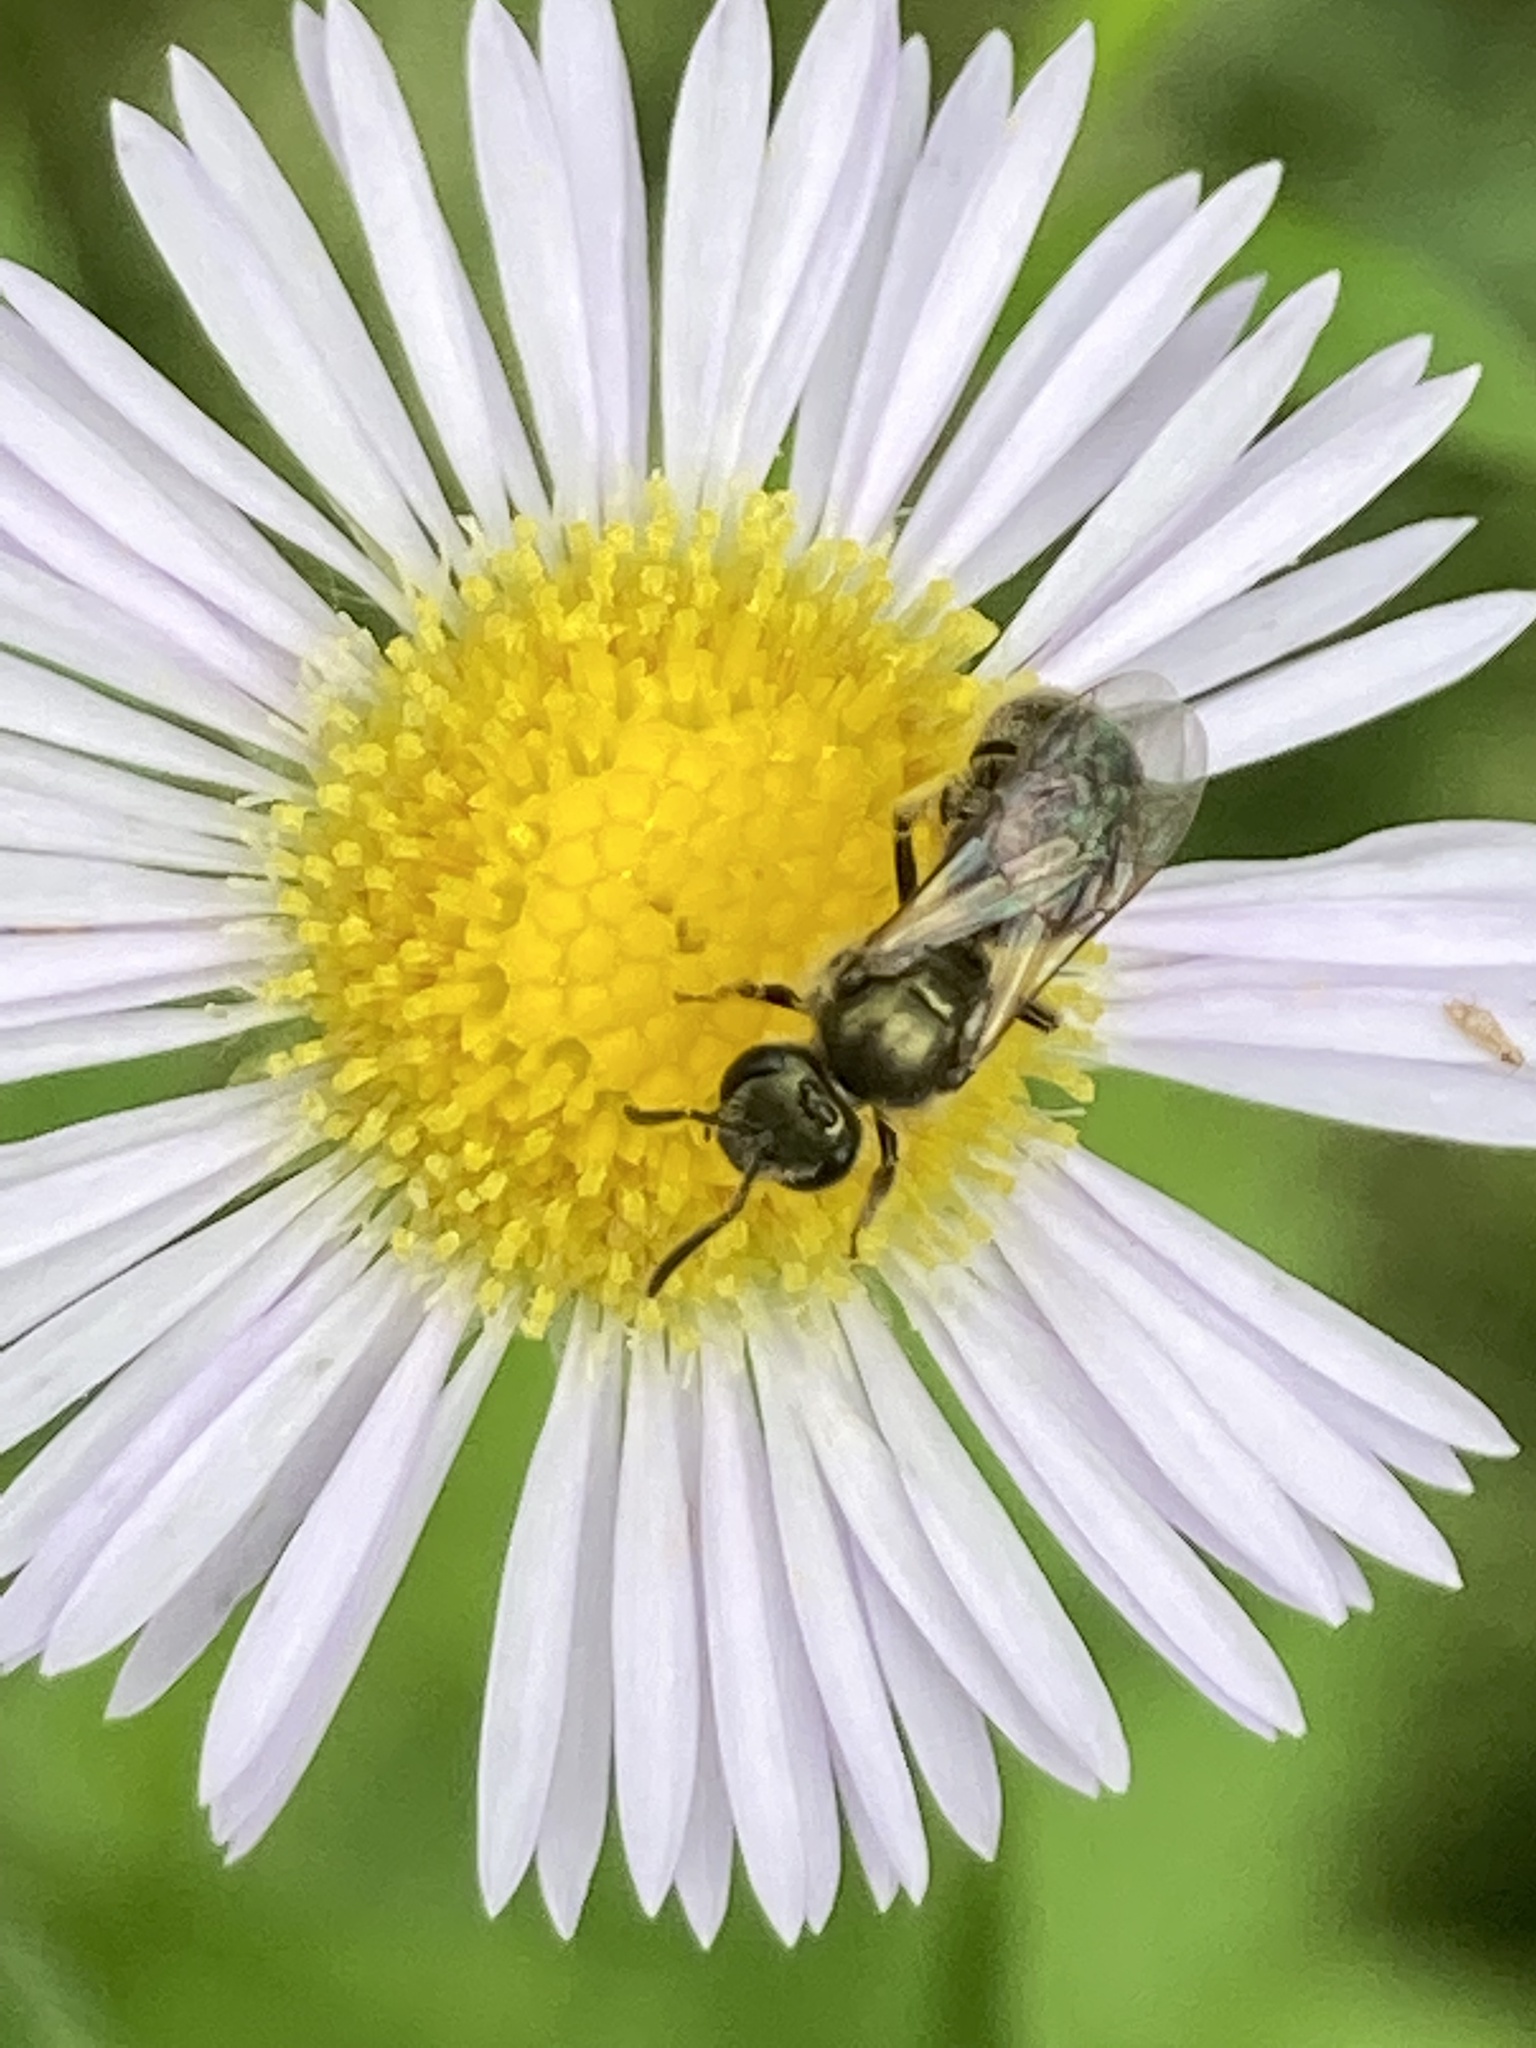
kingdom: Animalia
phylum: Arthropoda
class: Insecta
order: Hymenoptera
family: Halictidae
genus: Dialictus
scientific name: Dialictus
